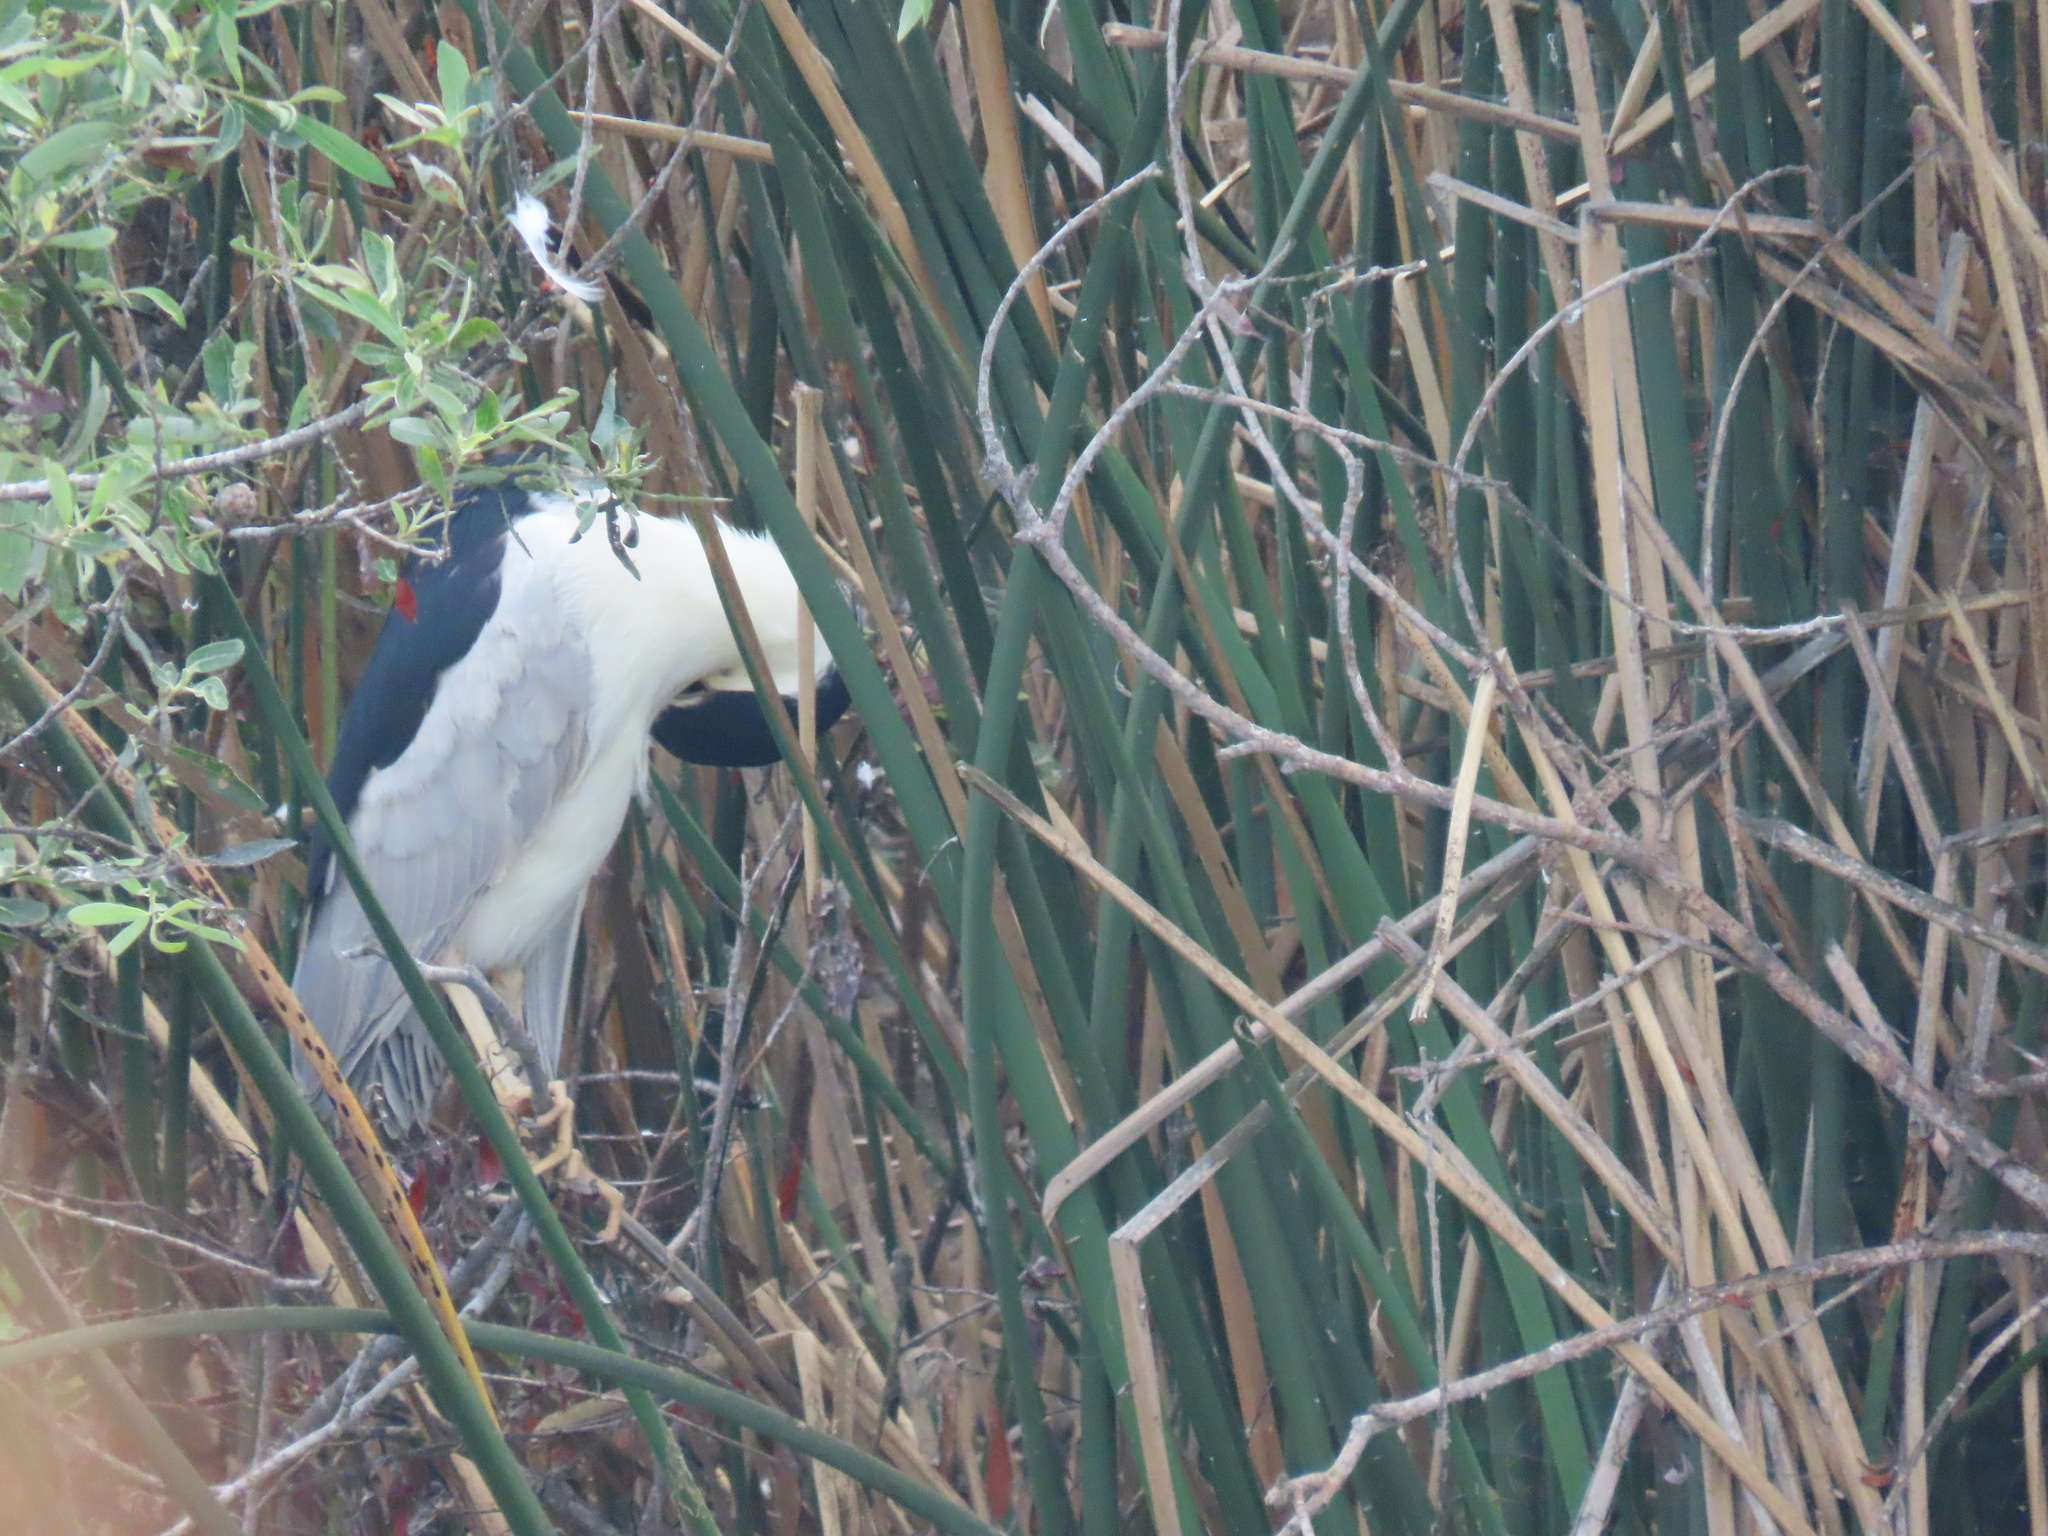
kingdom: Animalia
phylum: Chordata
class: Aves
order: Pelecaniformes
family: Ardeidae
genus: Nycticorax
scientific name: Nycticorax nycticorax
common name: Black-crowned night heron
